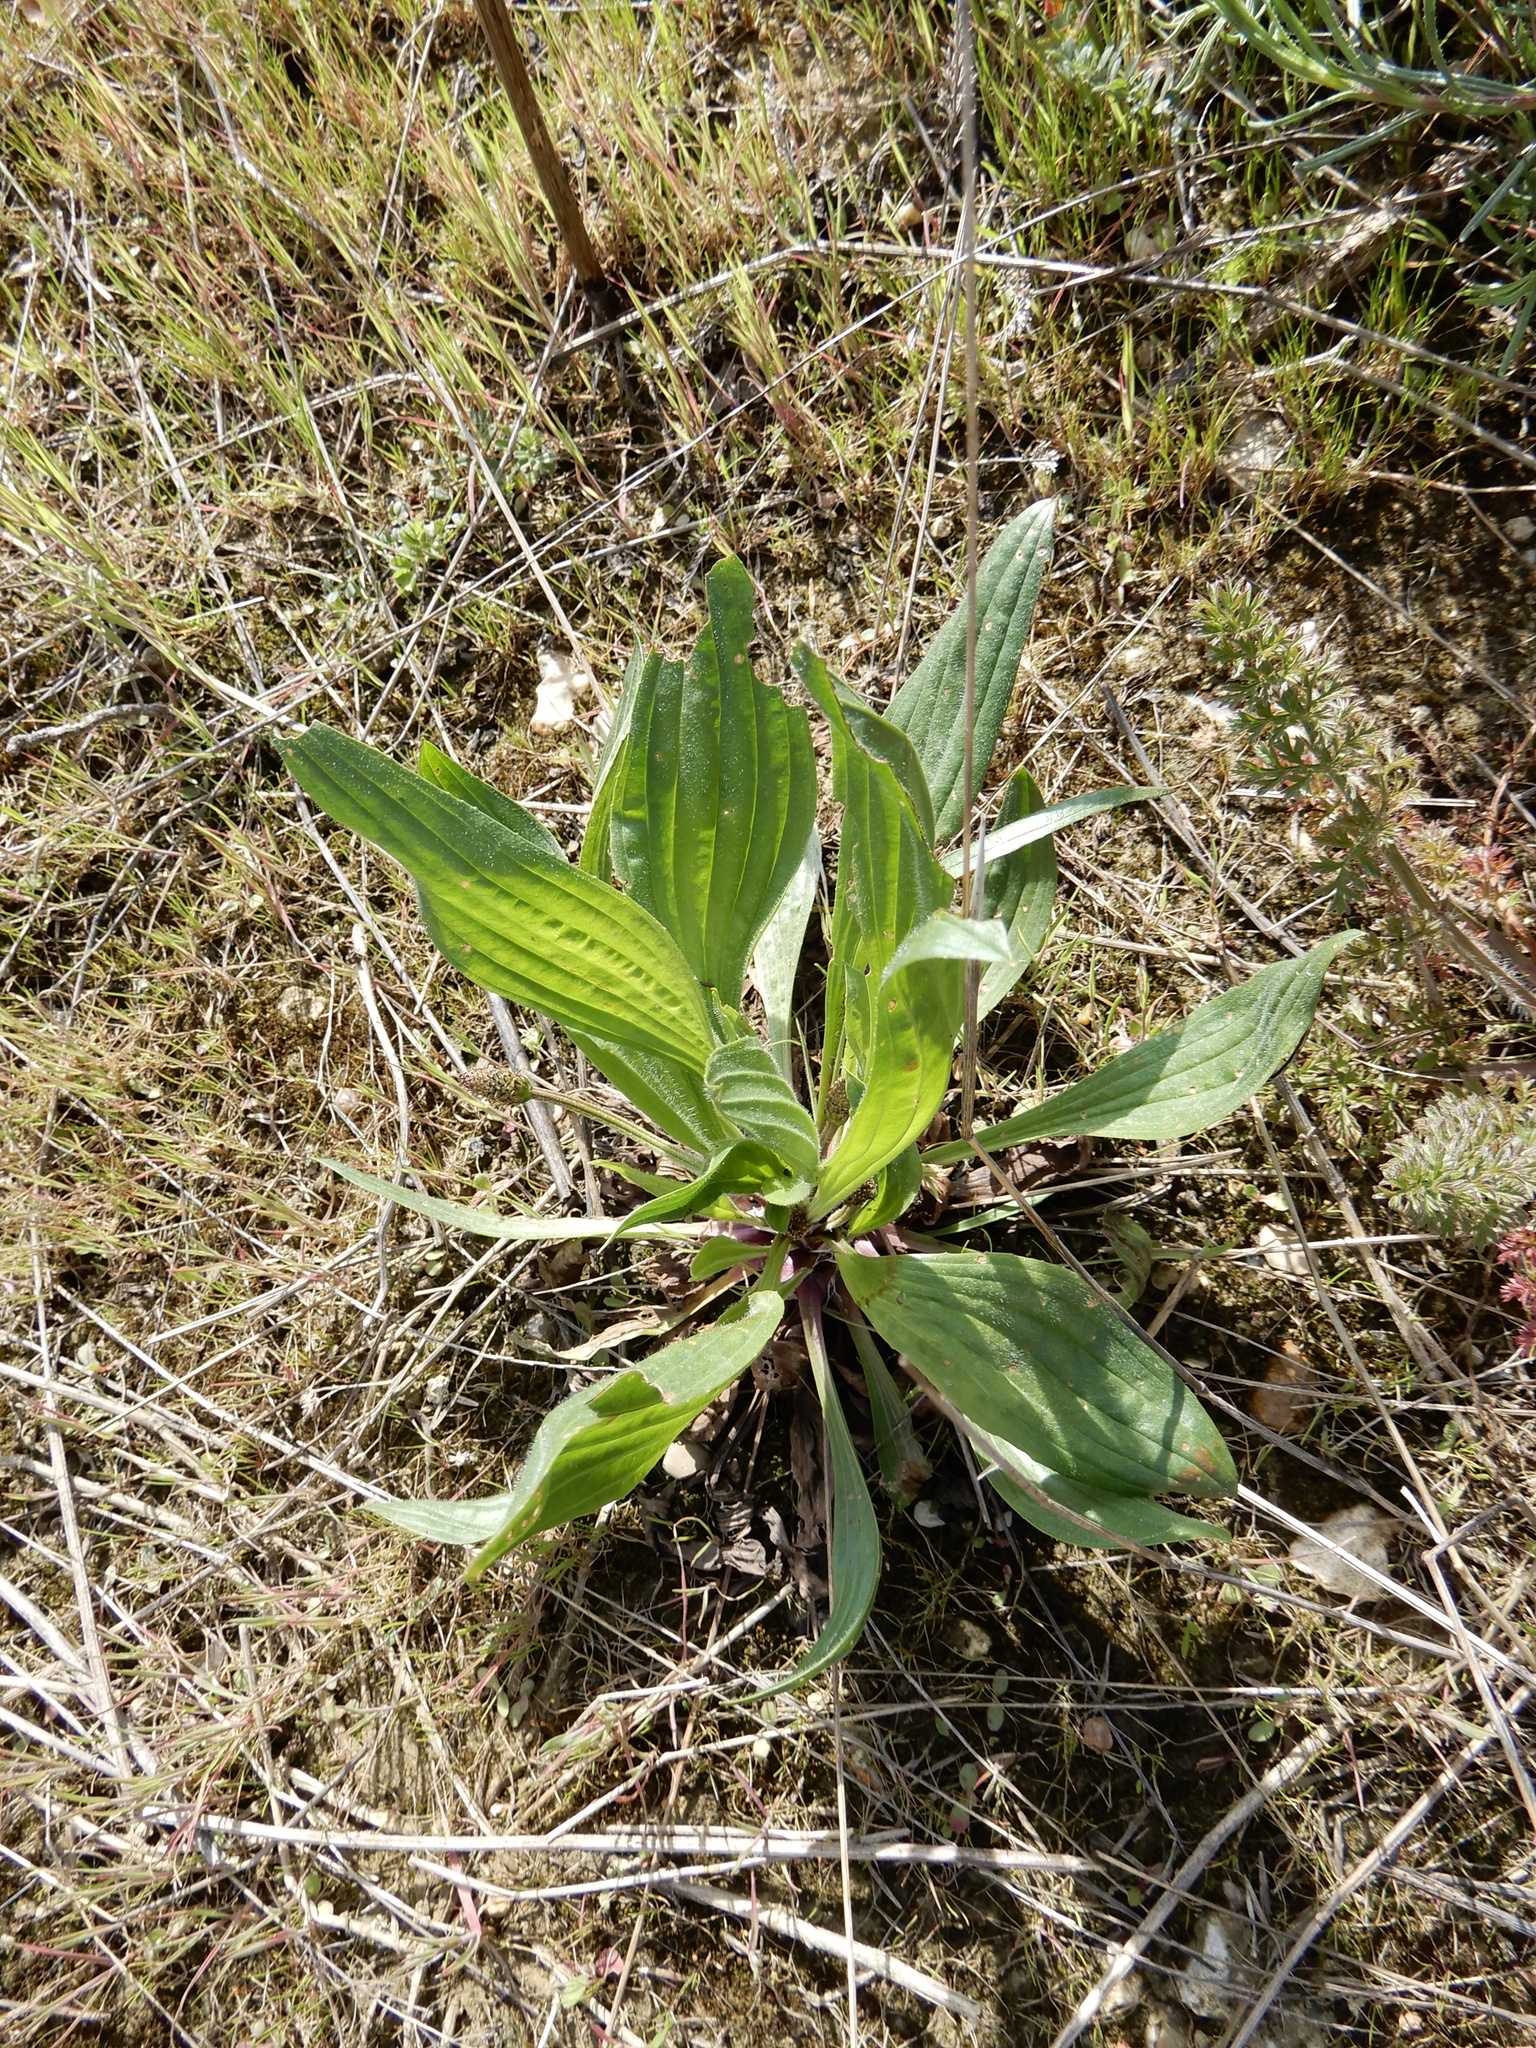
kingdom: Plantae
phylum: Tracheophyta
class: Magnoliopsida
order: Lamiales
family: Plantaginaceae
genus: Plantago
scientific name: Plantago lanceolata
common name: Ribwort plantain
